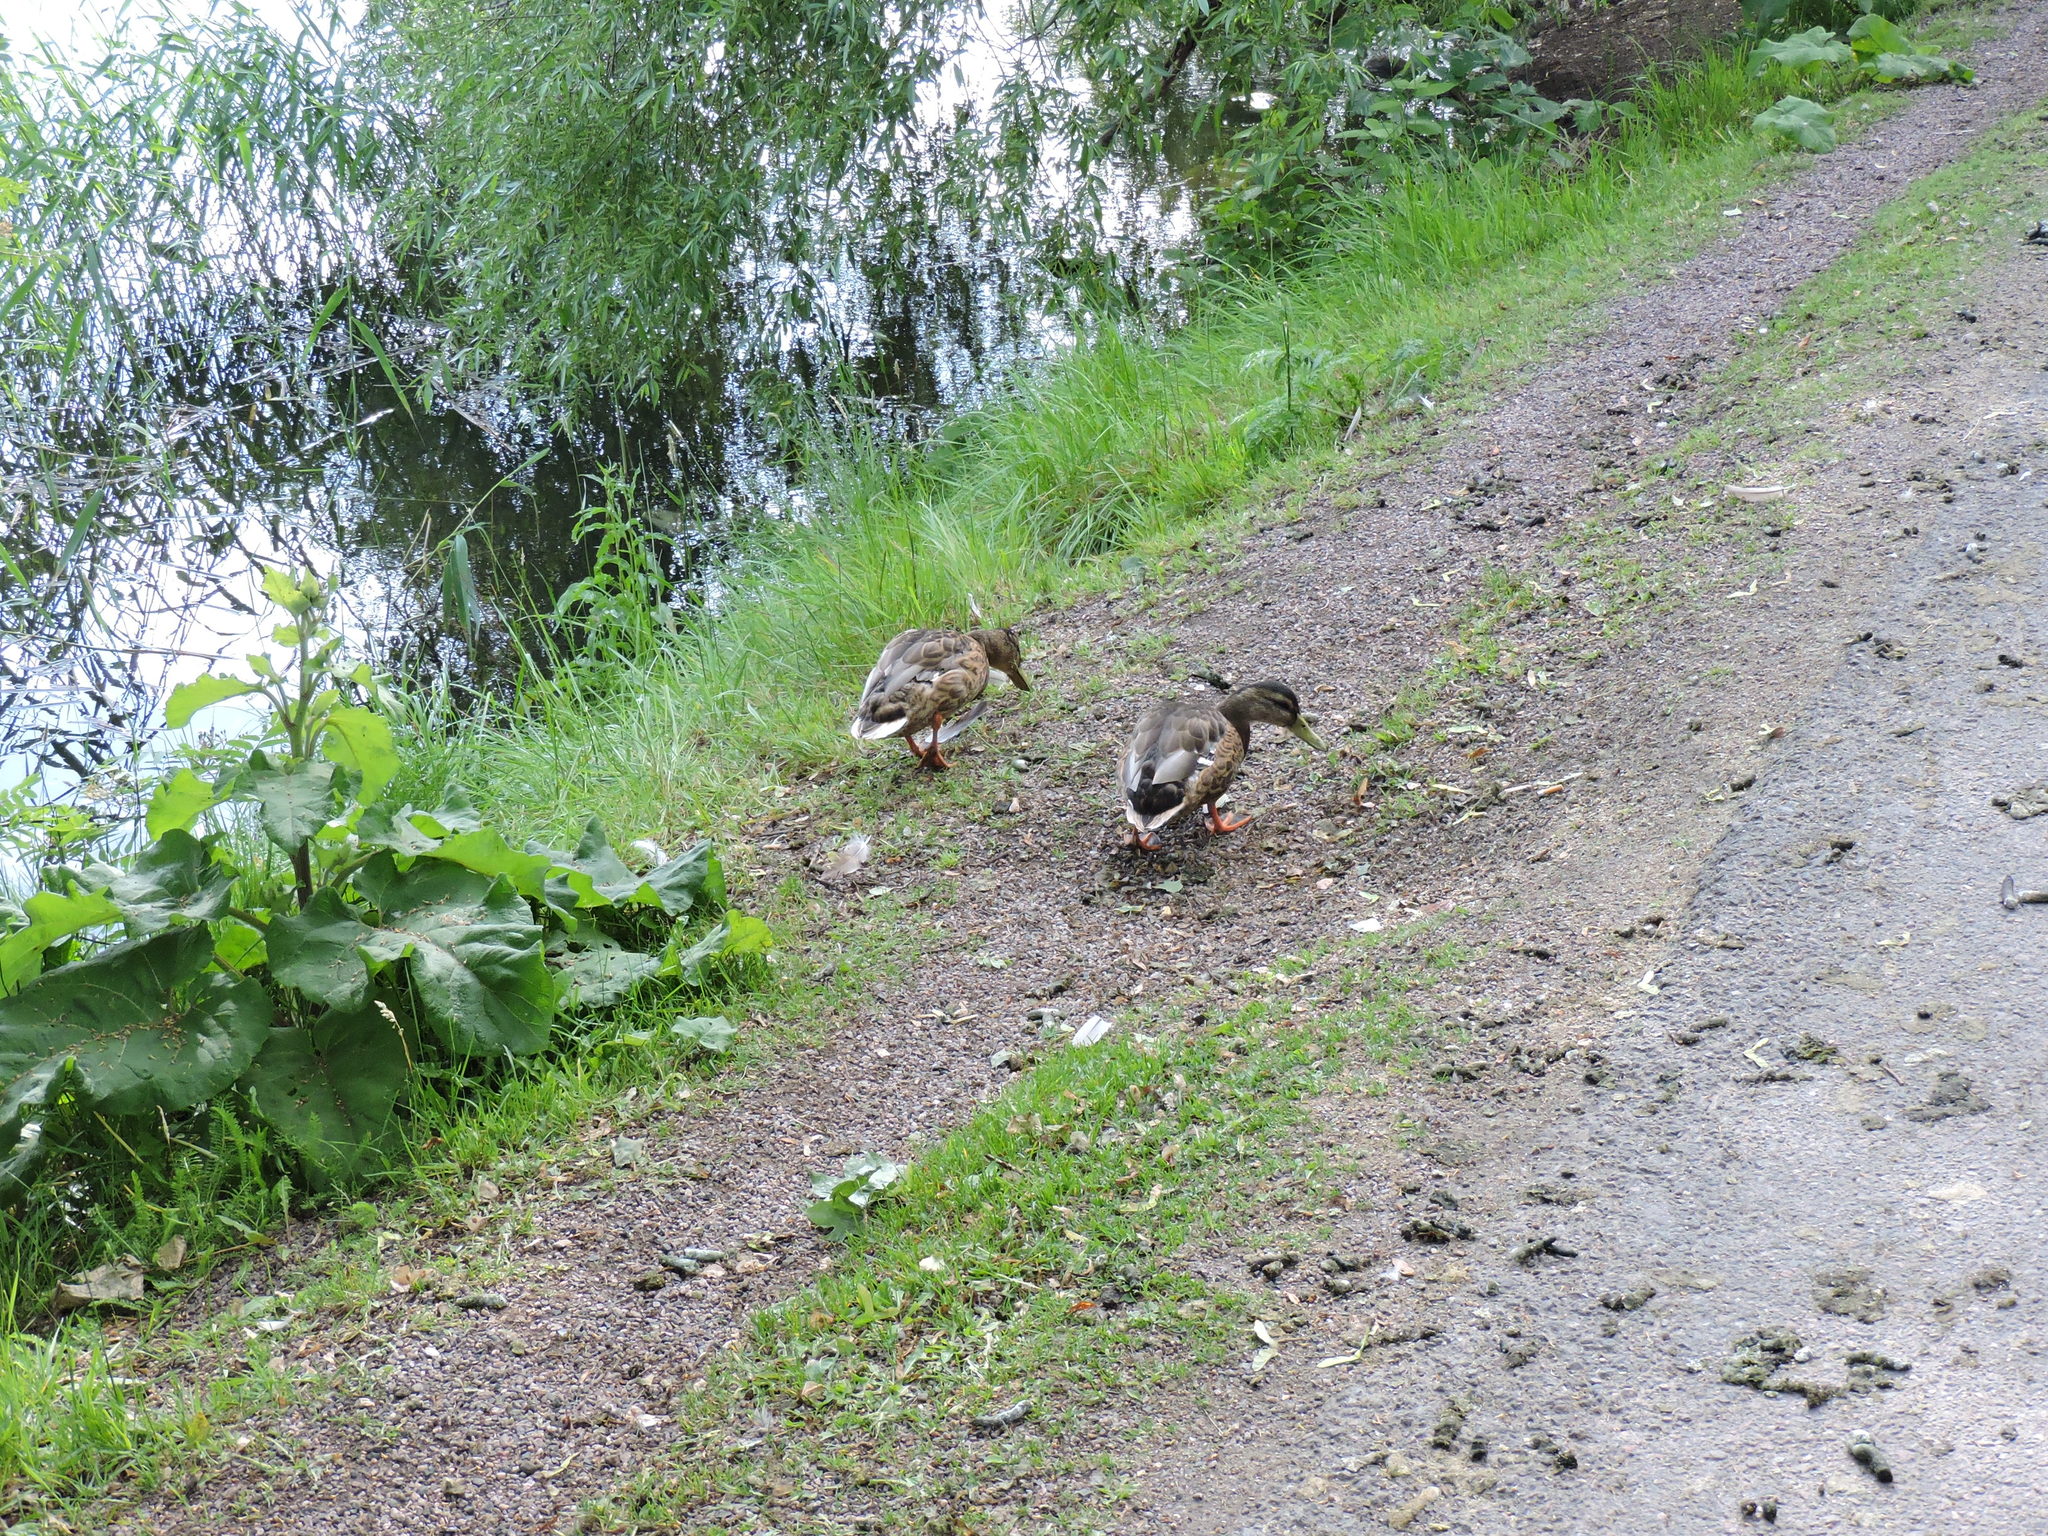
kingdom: Animalia
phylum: Chordata
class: Aves
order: Anseriformes
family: Anatidae
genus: Anas
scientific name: Anas platyrhynchos
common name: Mallard
